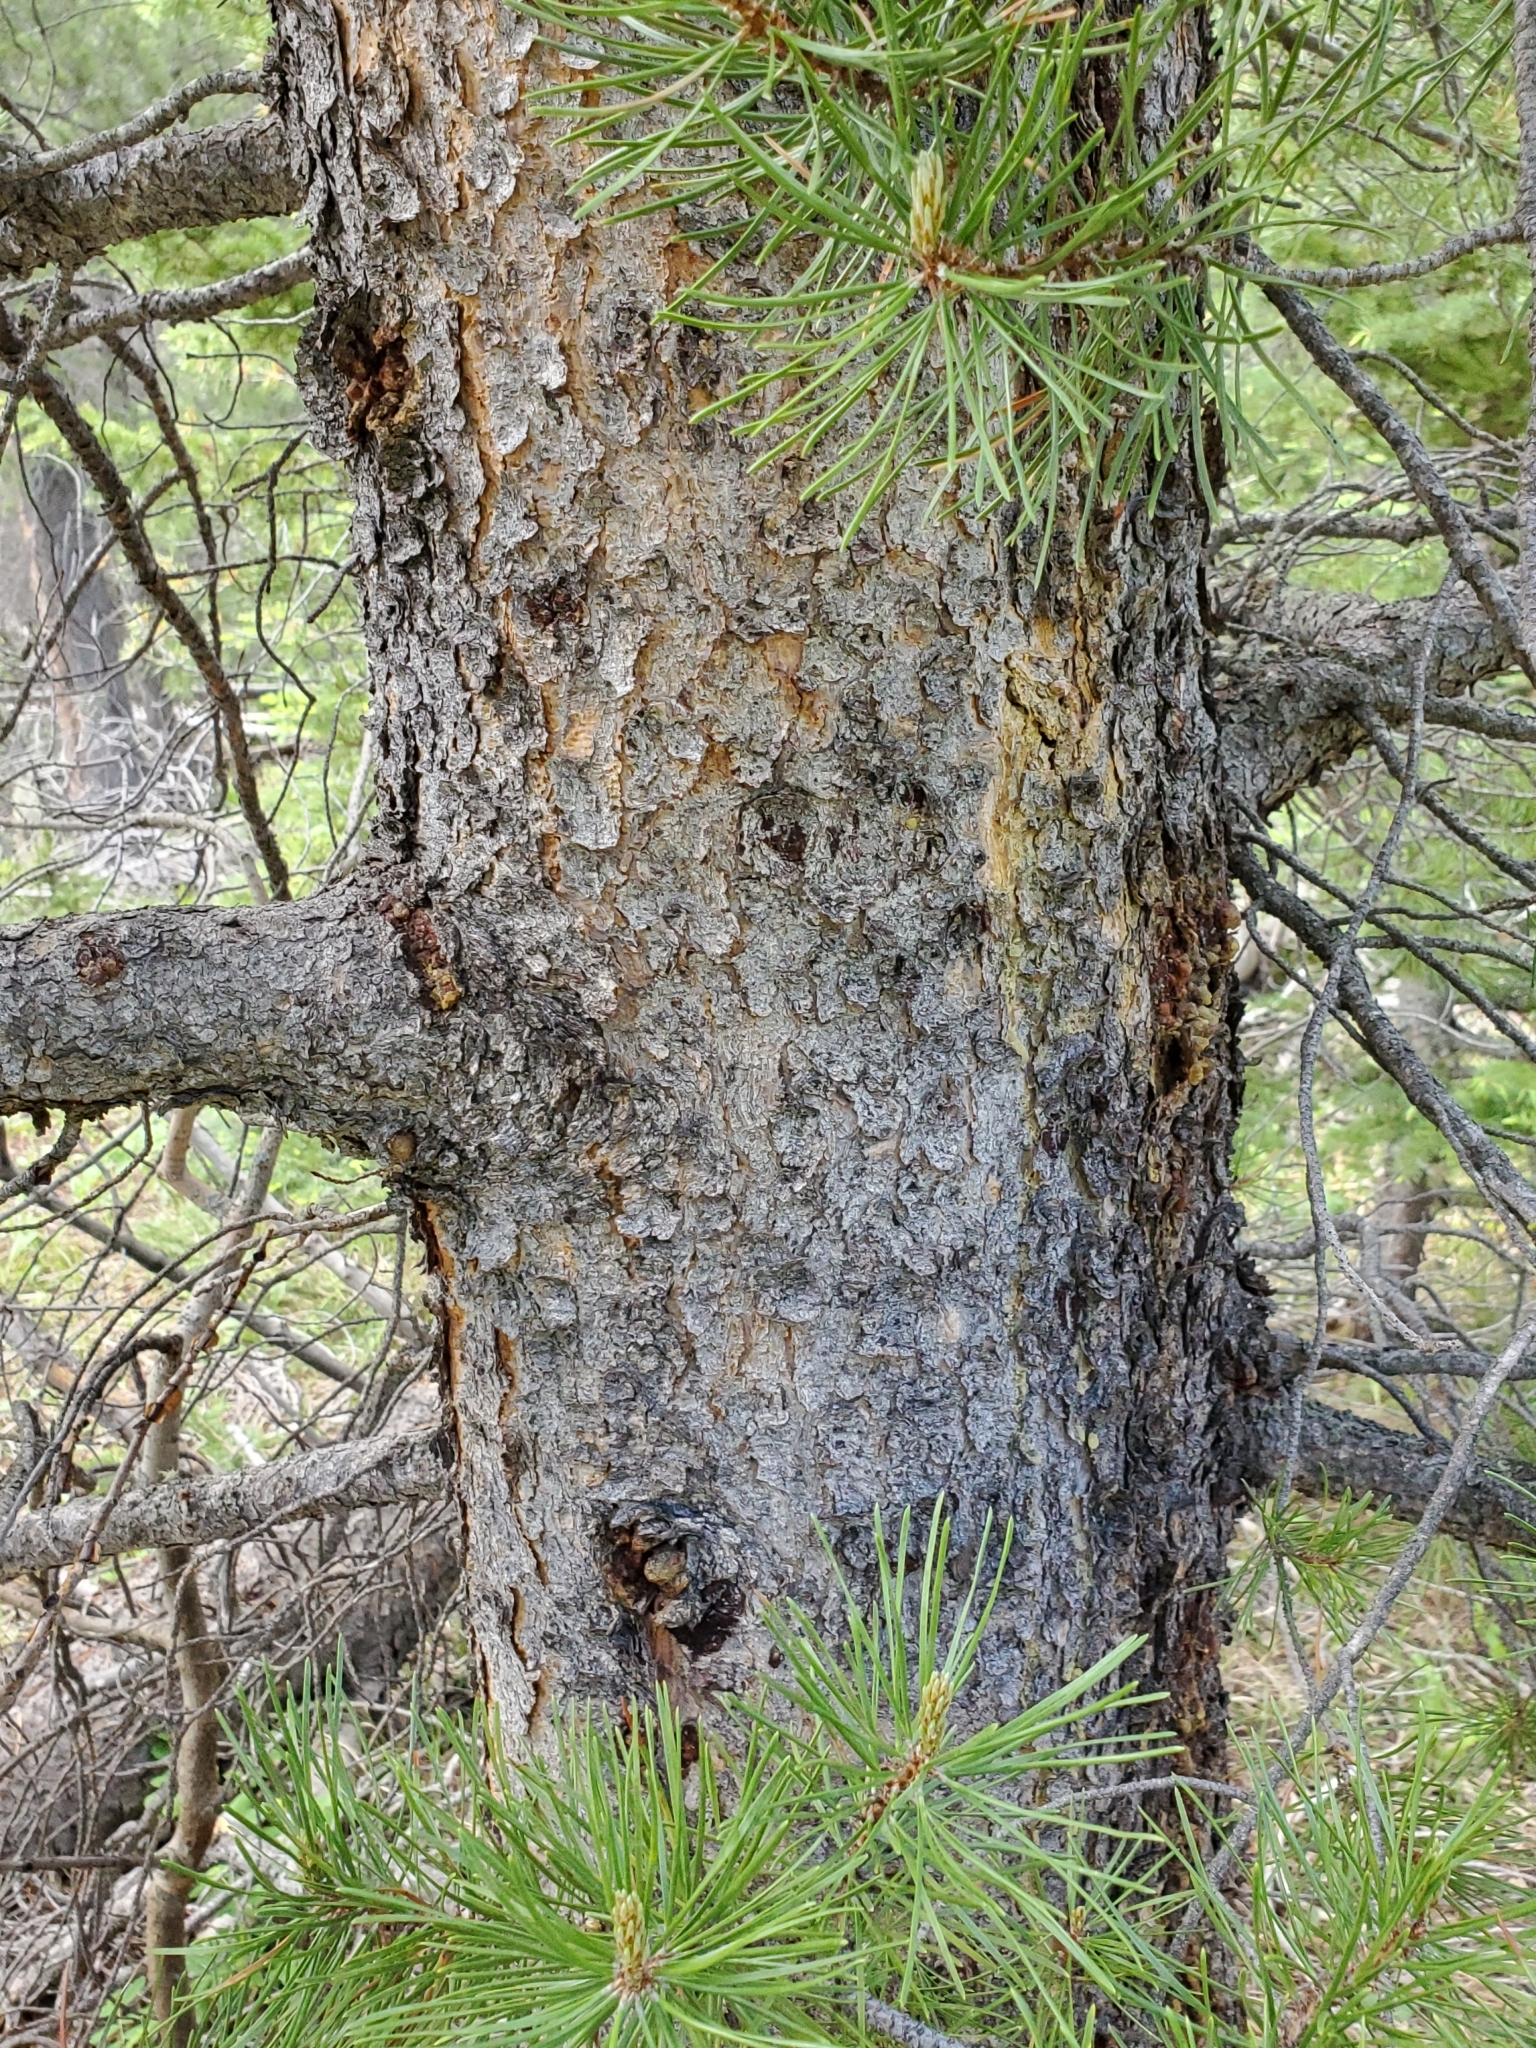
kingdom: Plantae
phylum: Tracheophyta
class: Pinopsida
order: Pinales
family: Pinaceae
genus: Pinus
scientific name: Pinus contorta
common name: Lodgepole pine
